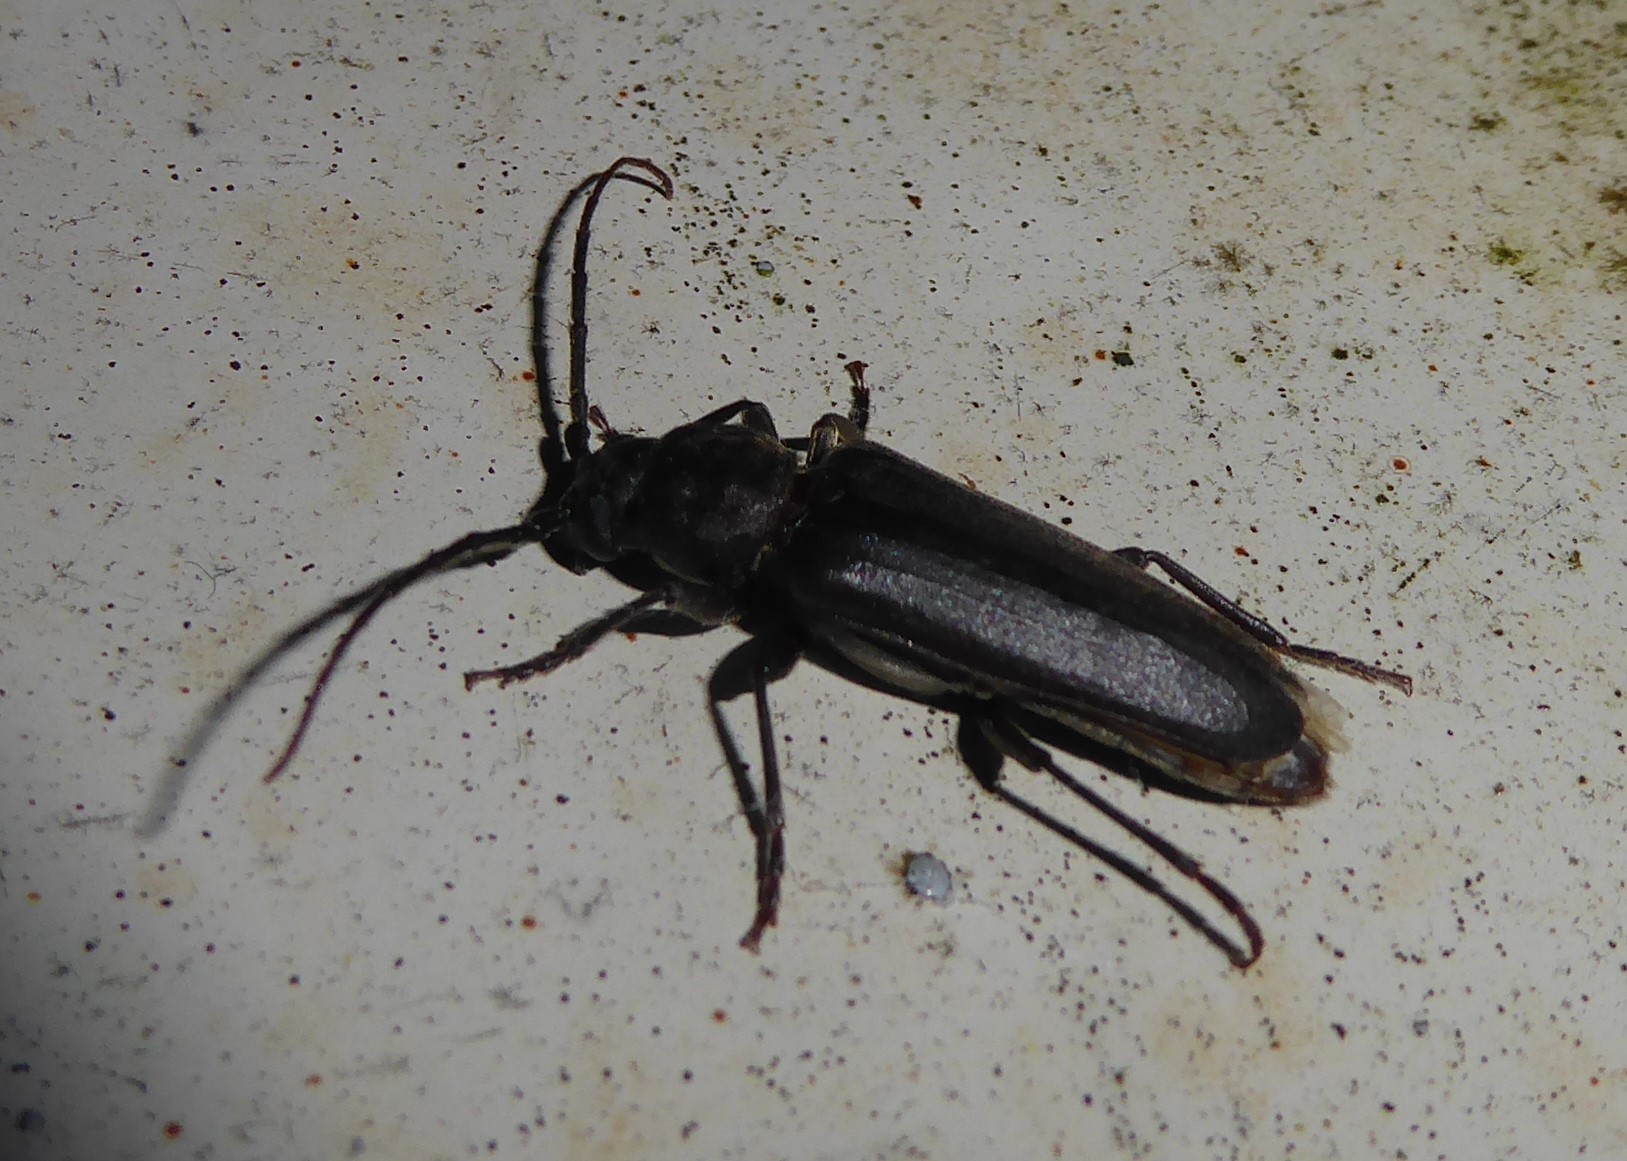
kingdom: Animalia
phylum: Arthropoda
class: Insecta
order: Coleoptera
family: Cerambycidae
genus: Arhopalus
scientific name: Arhopalus ferus
